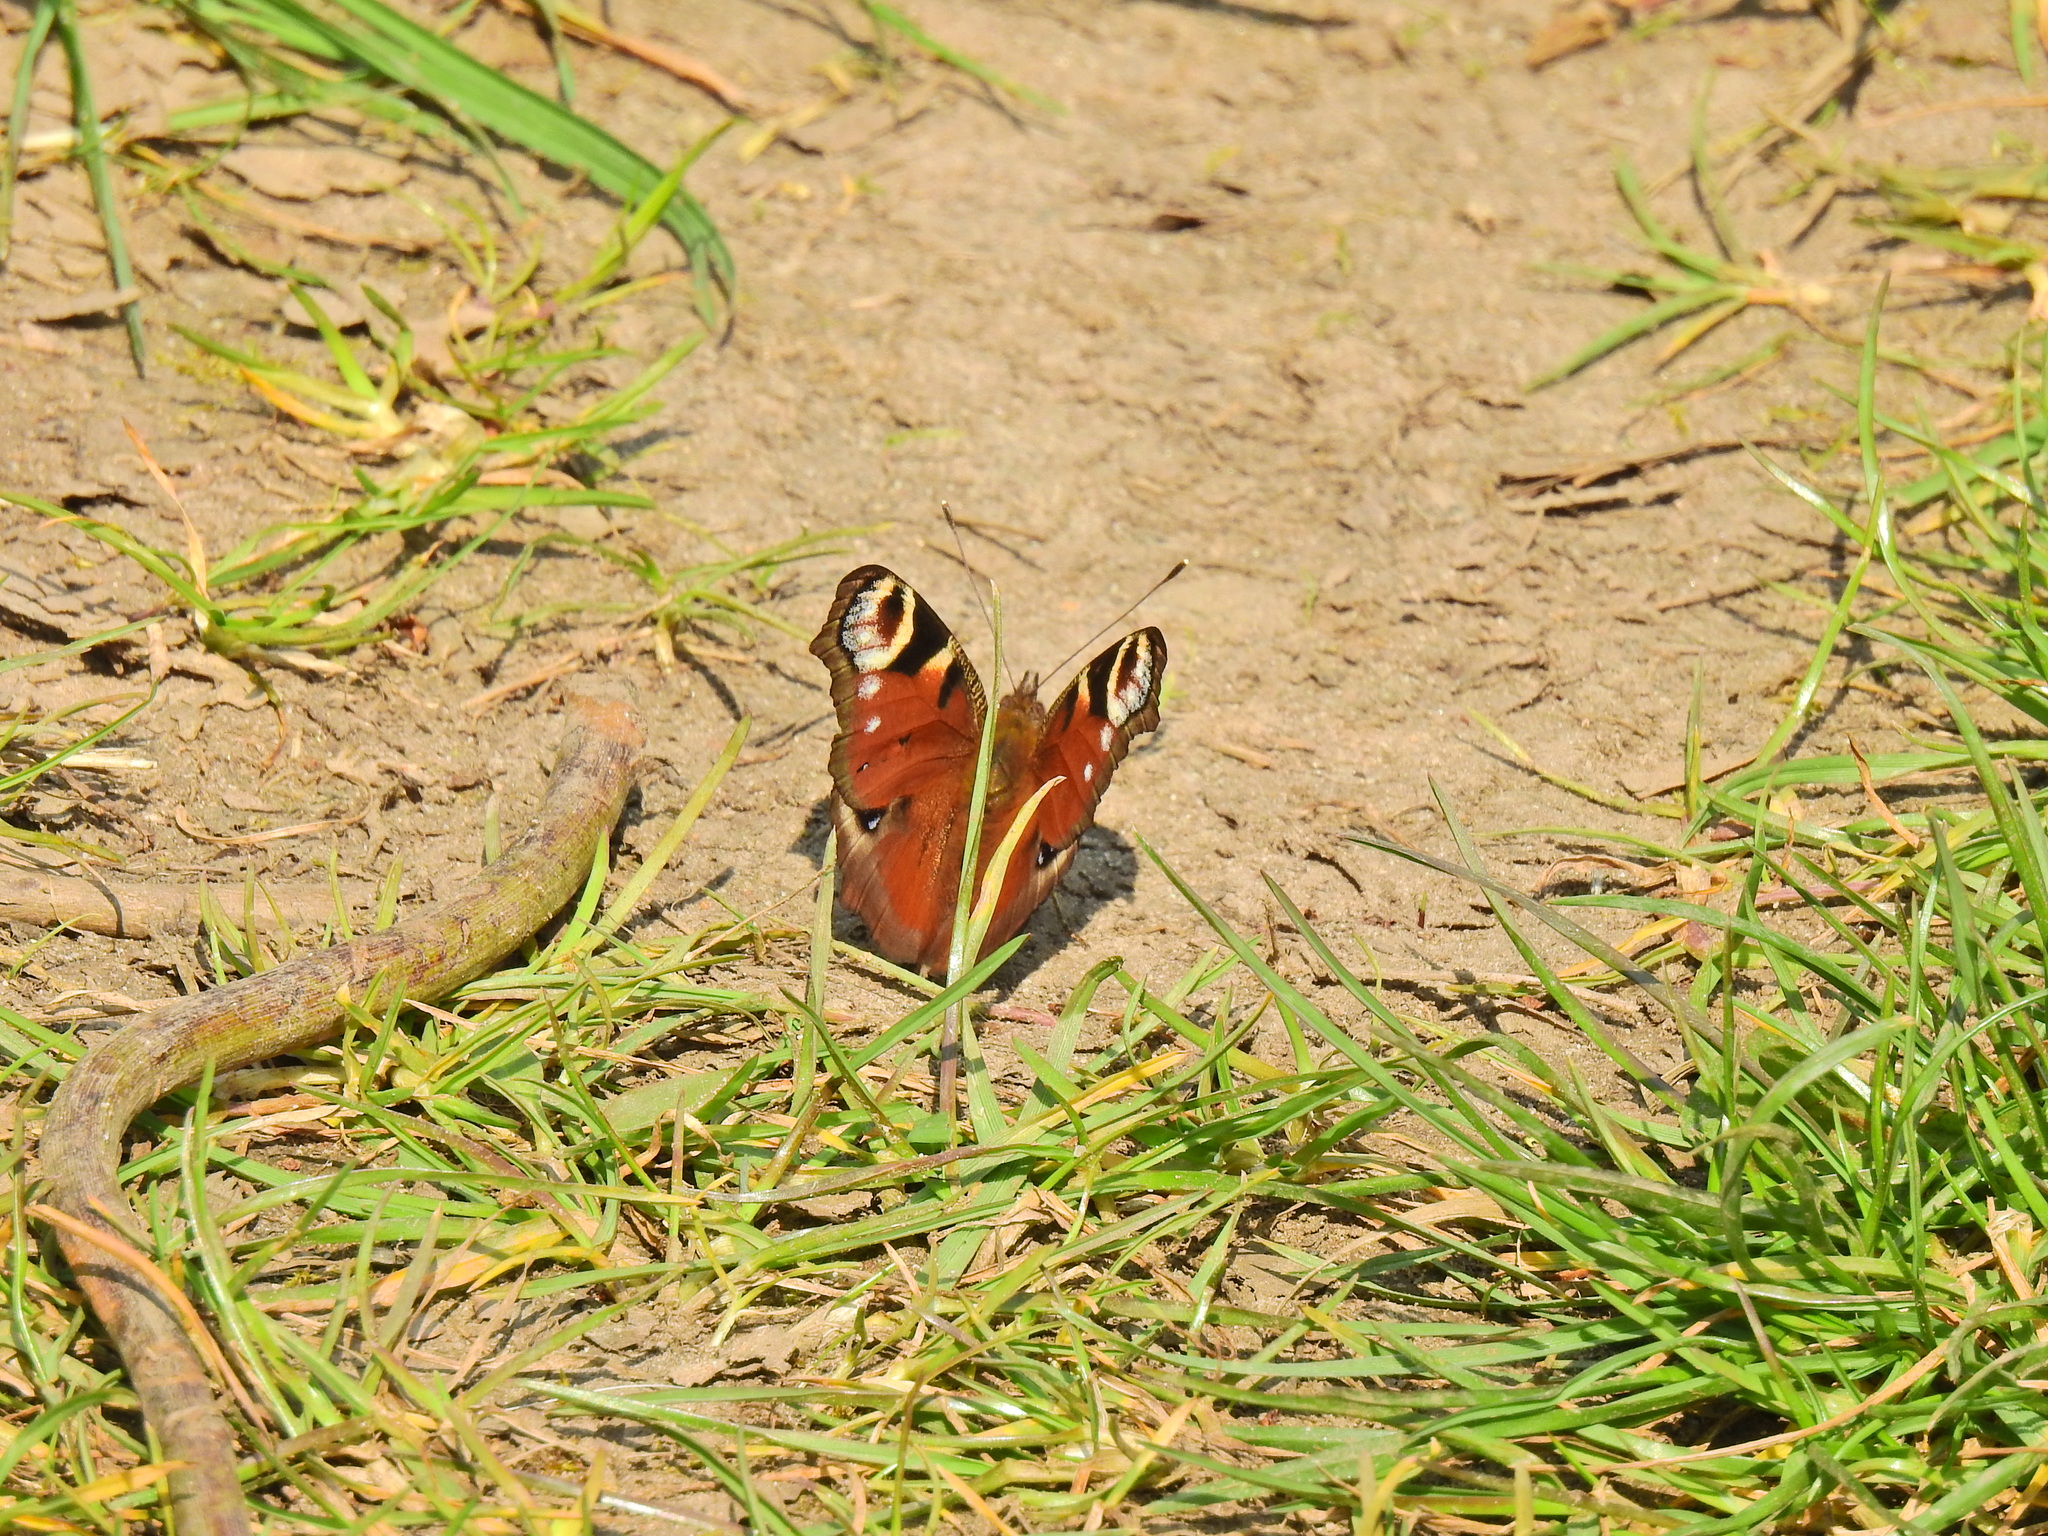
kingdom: Animalia
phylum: Arthropoda
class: Insecta
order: Lepidoptera
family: Nymphalidae
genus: Aglais
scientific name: Aglais io
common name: Peacock
